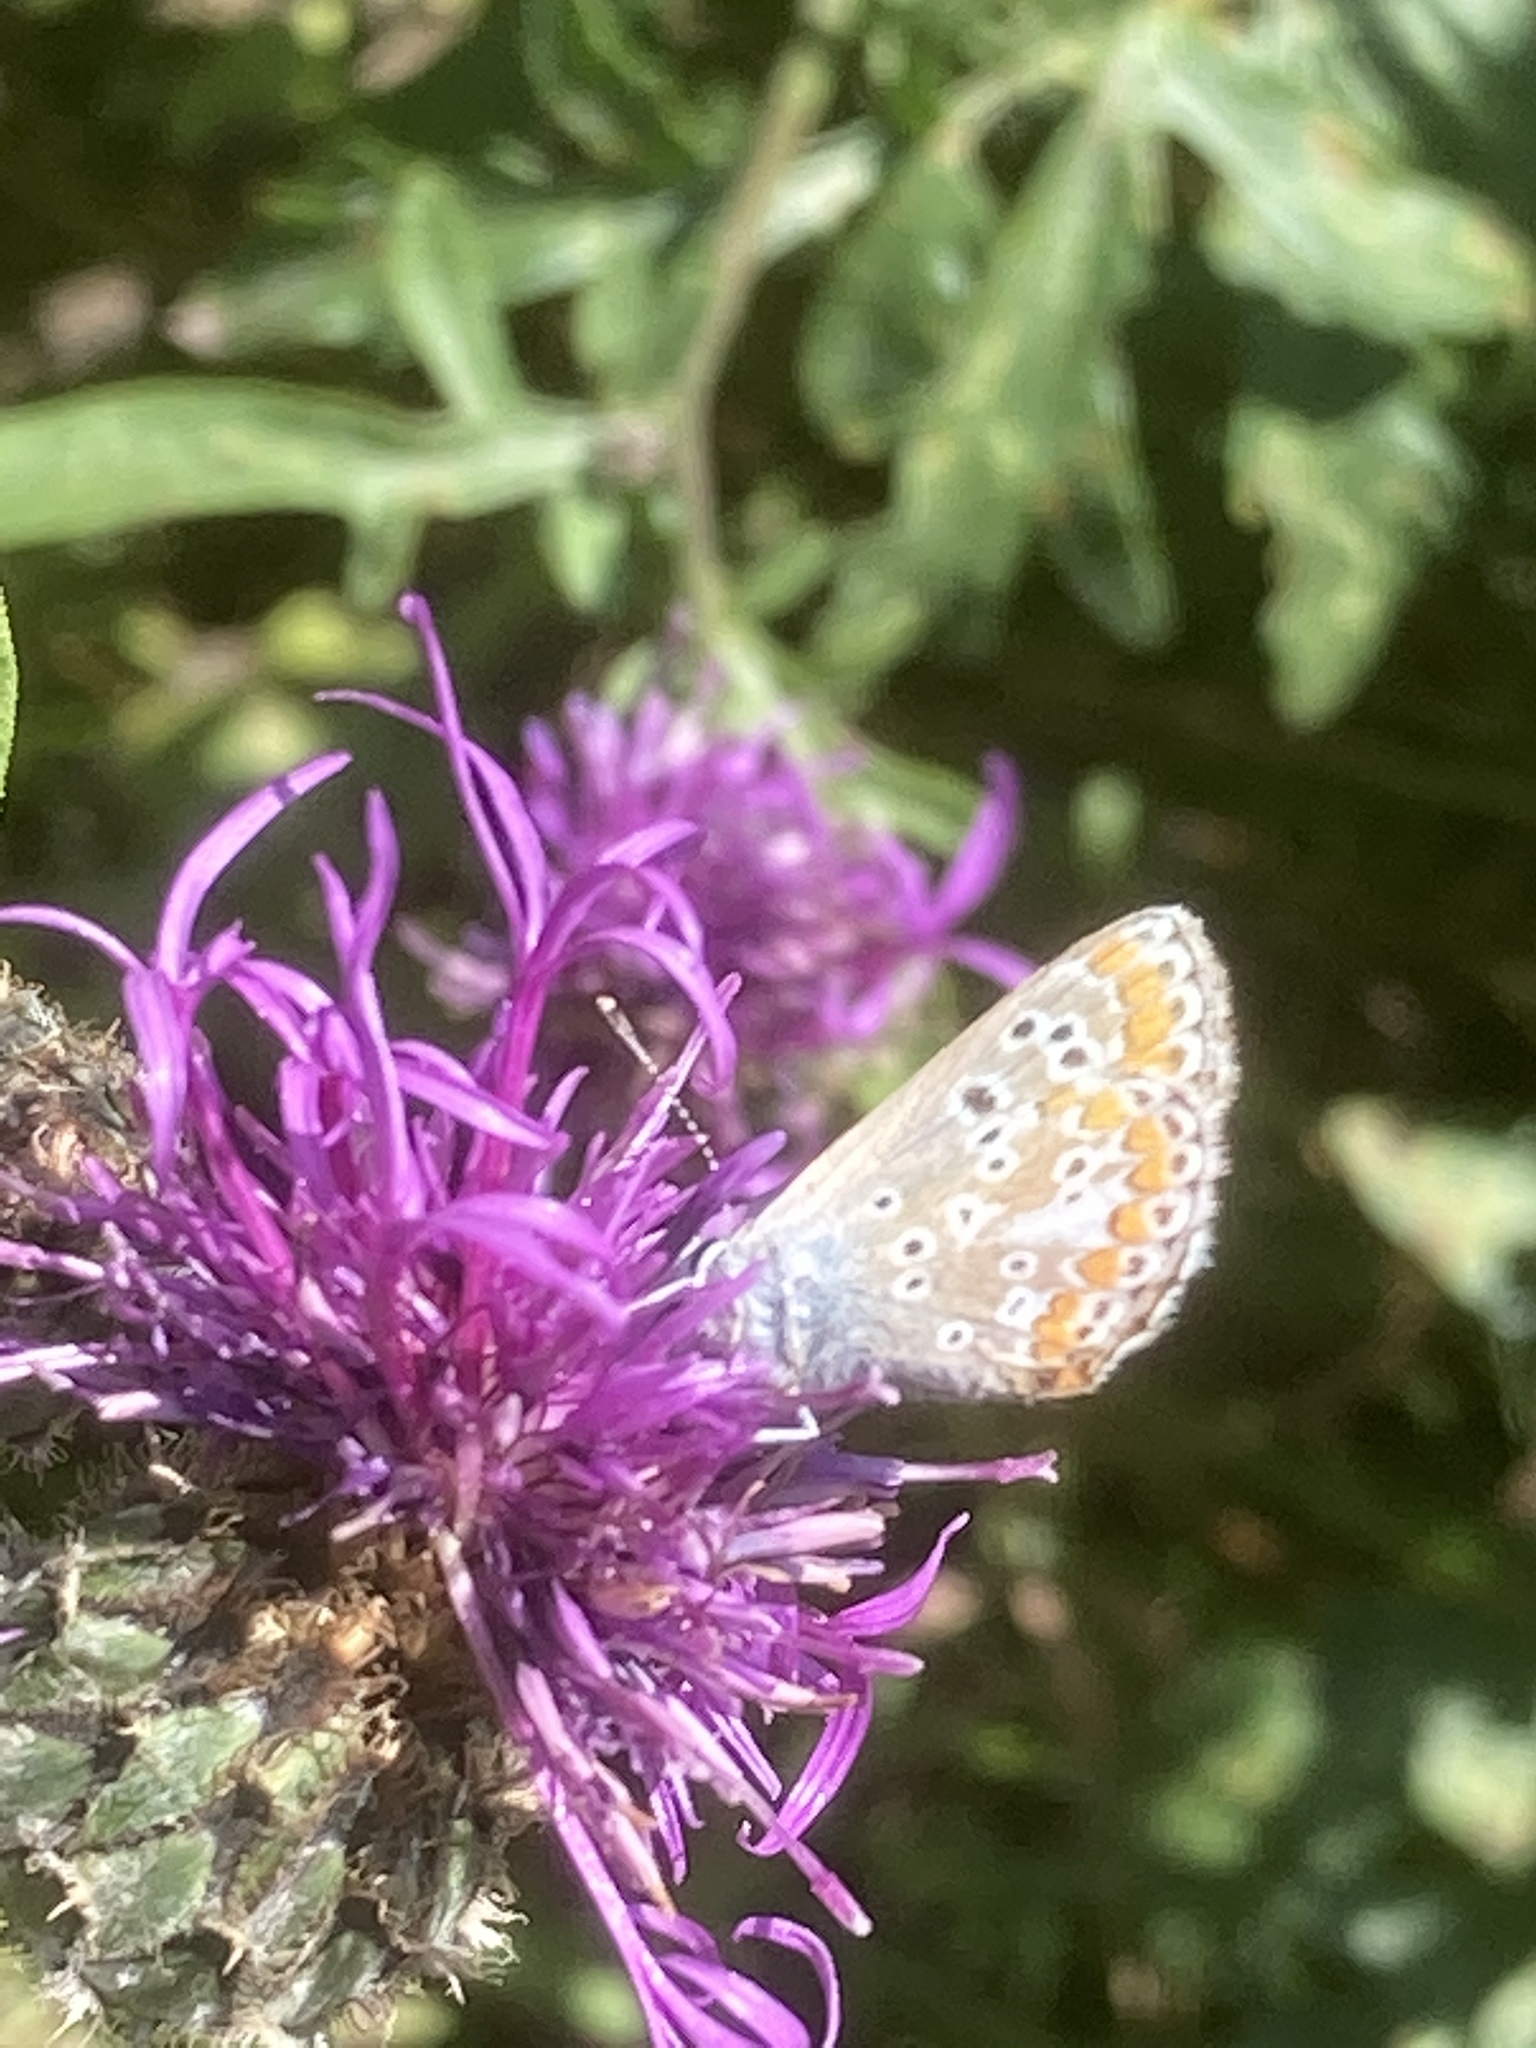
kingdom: Animalia
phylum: Arthropoda
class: Insecta
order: Lepidoptera
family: Lycaenidae
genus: Aricia
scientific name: Aricia agestis
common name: Brown argus
